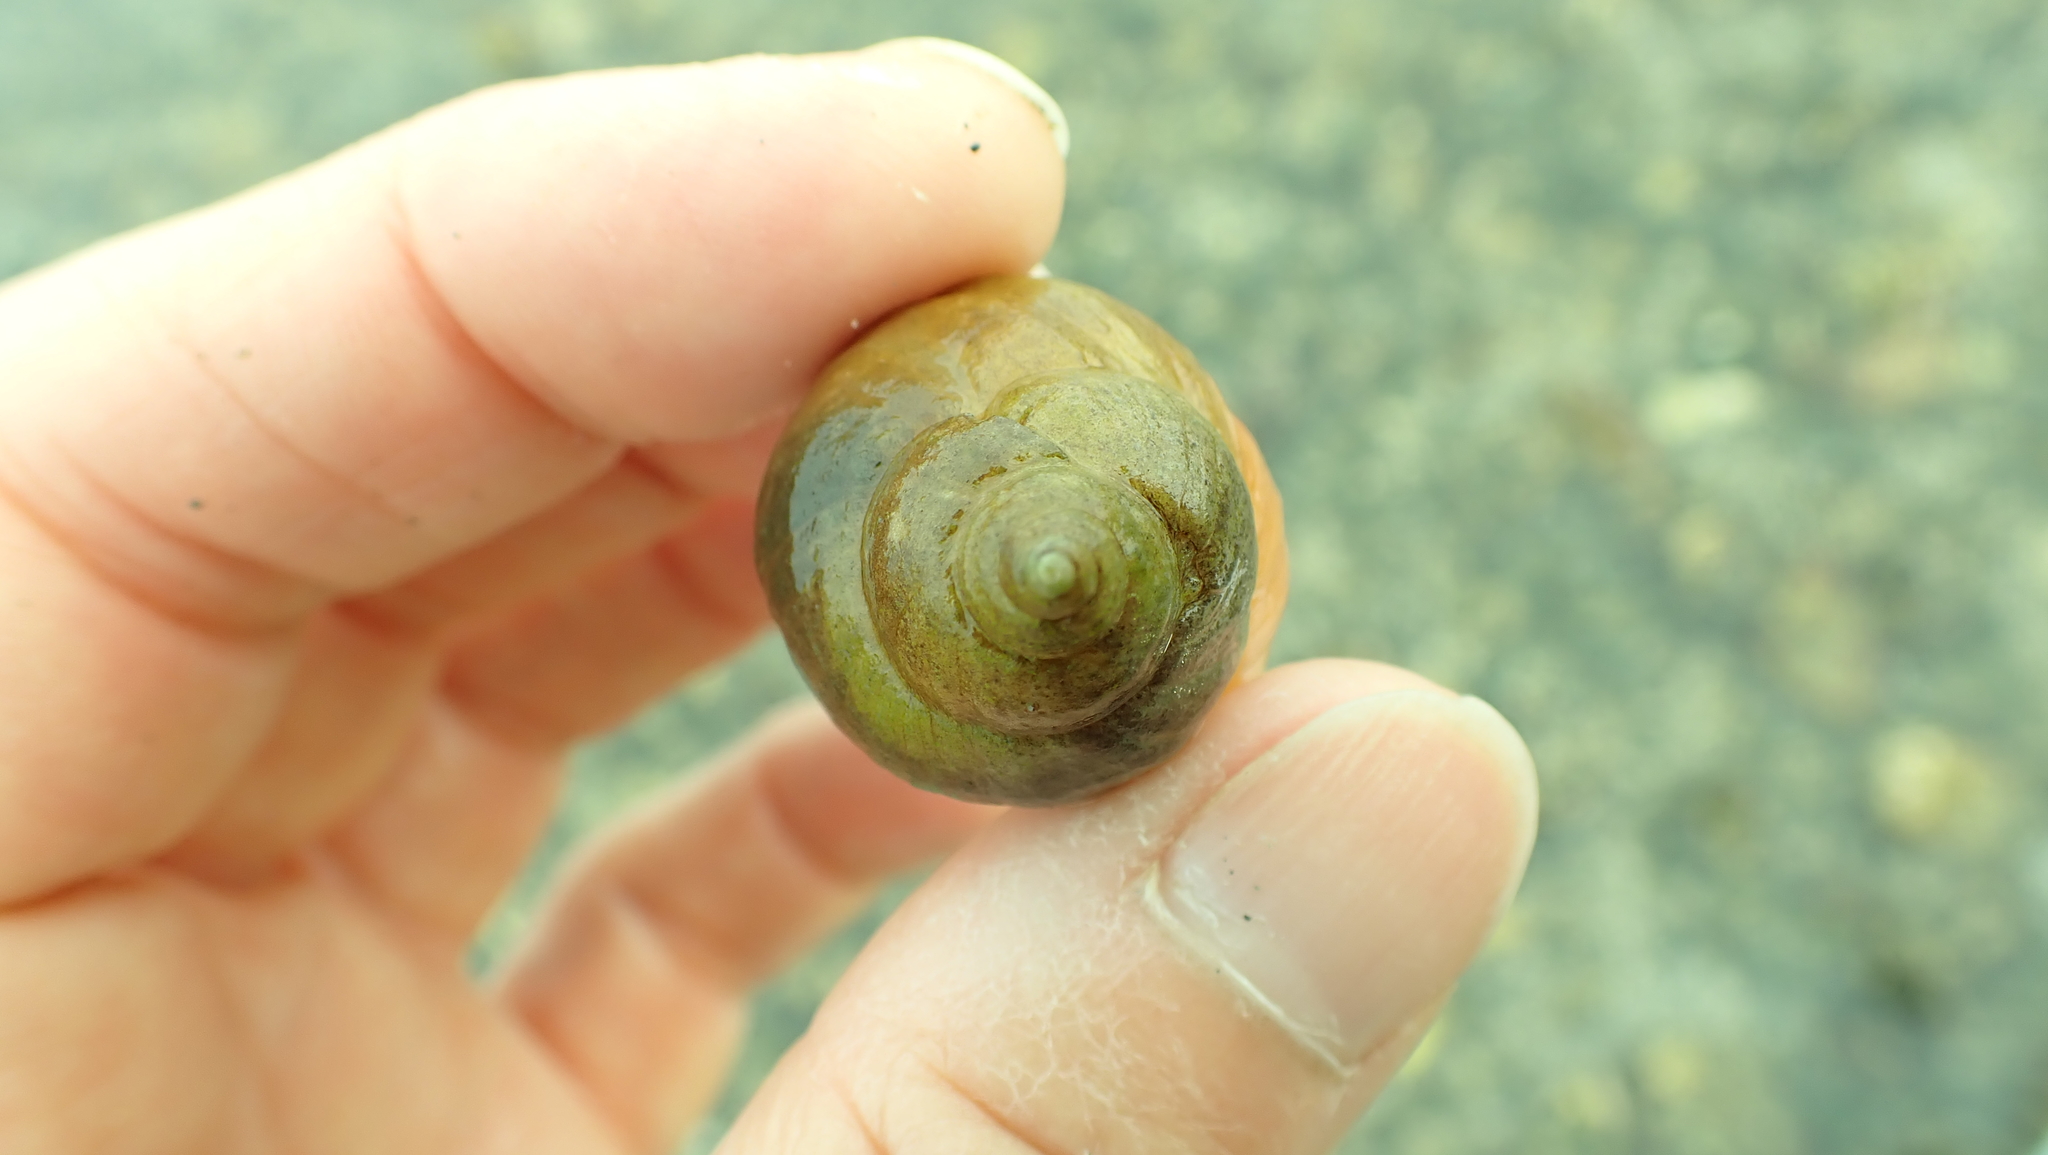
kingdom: Animalia
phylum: Mollusca
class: Gastropoda
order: Neogastropoda
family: Muricidae
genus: Nucella
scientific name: Nucella lamellosa
